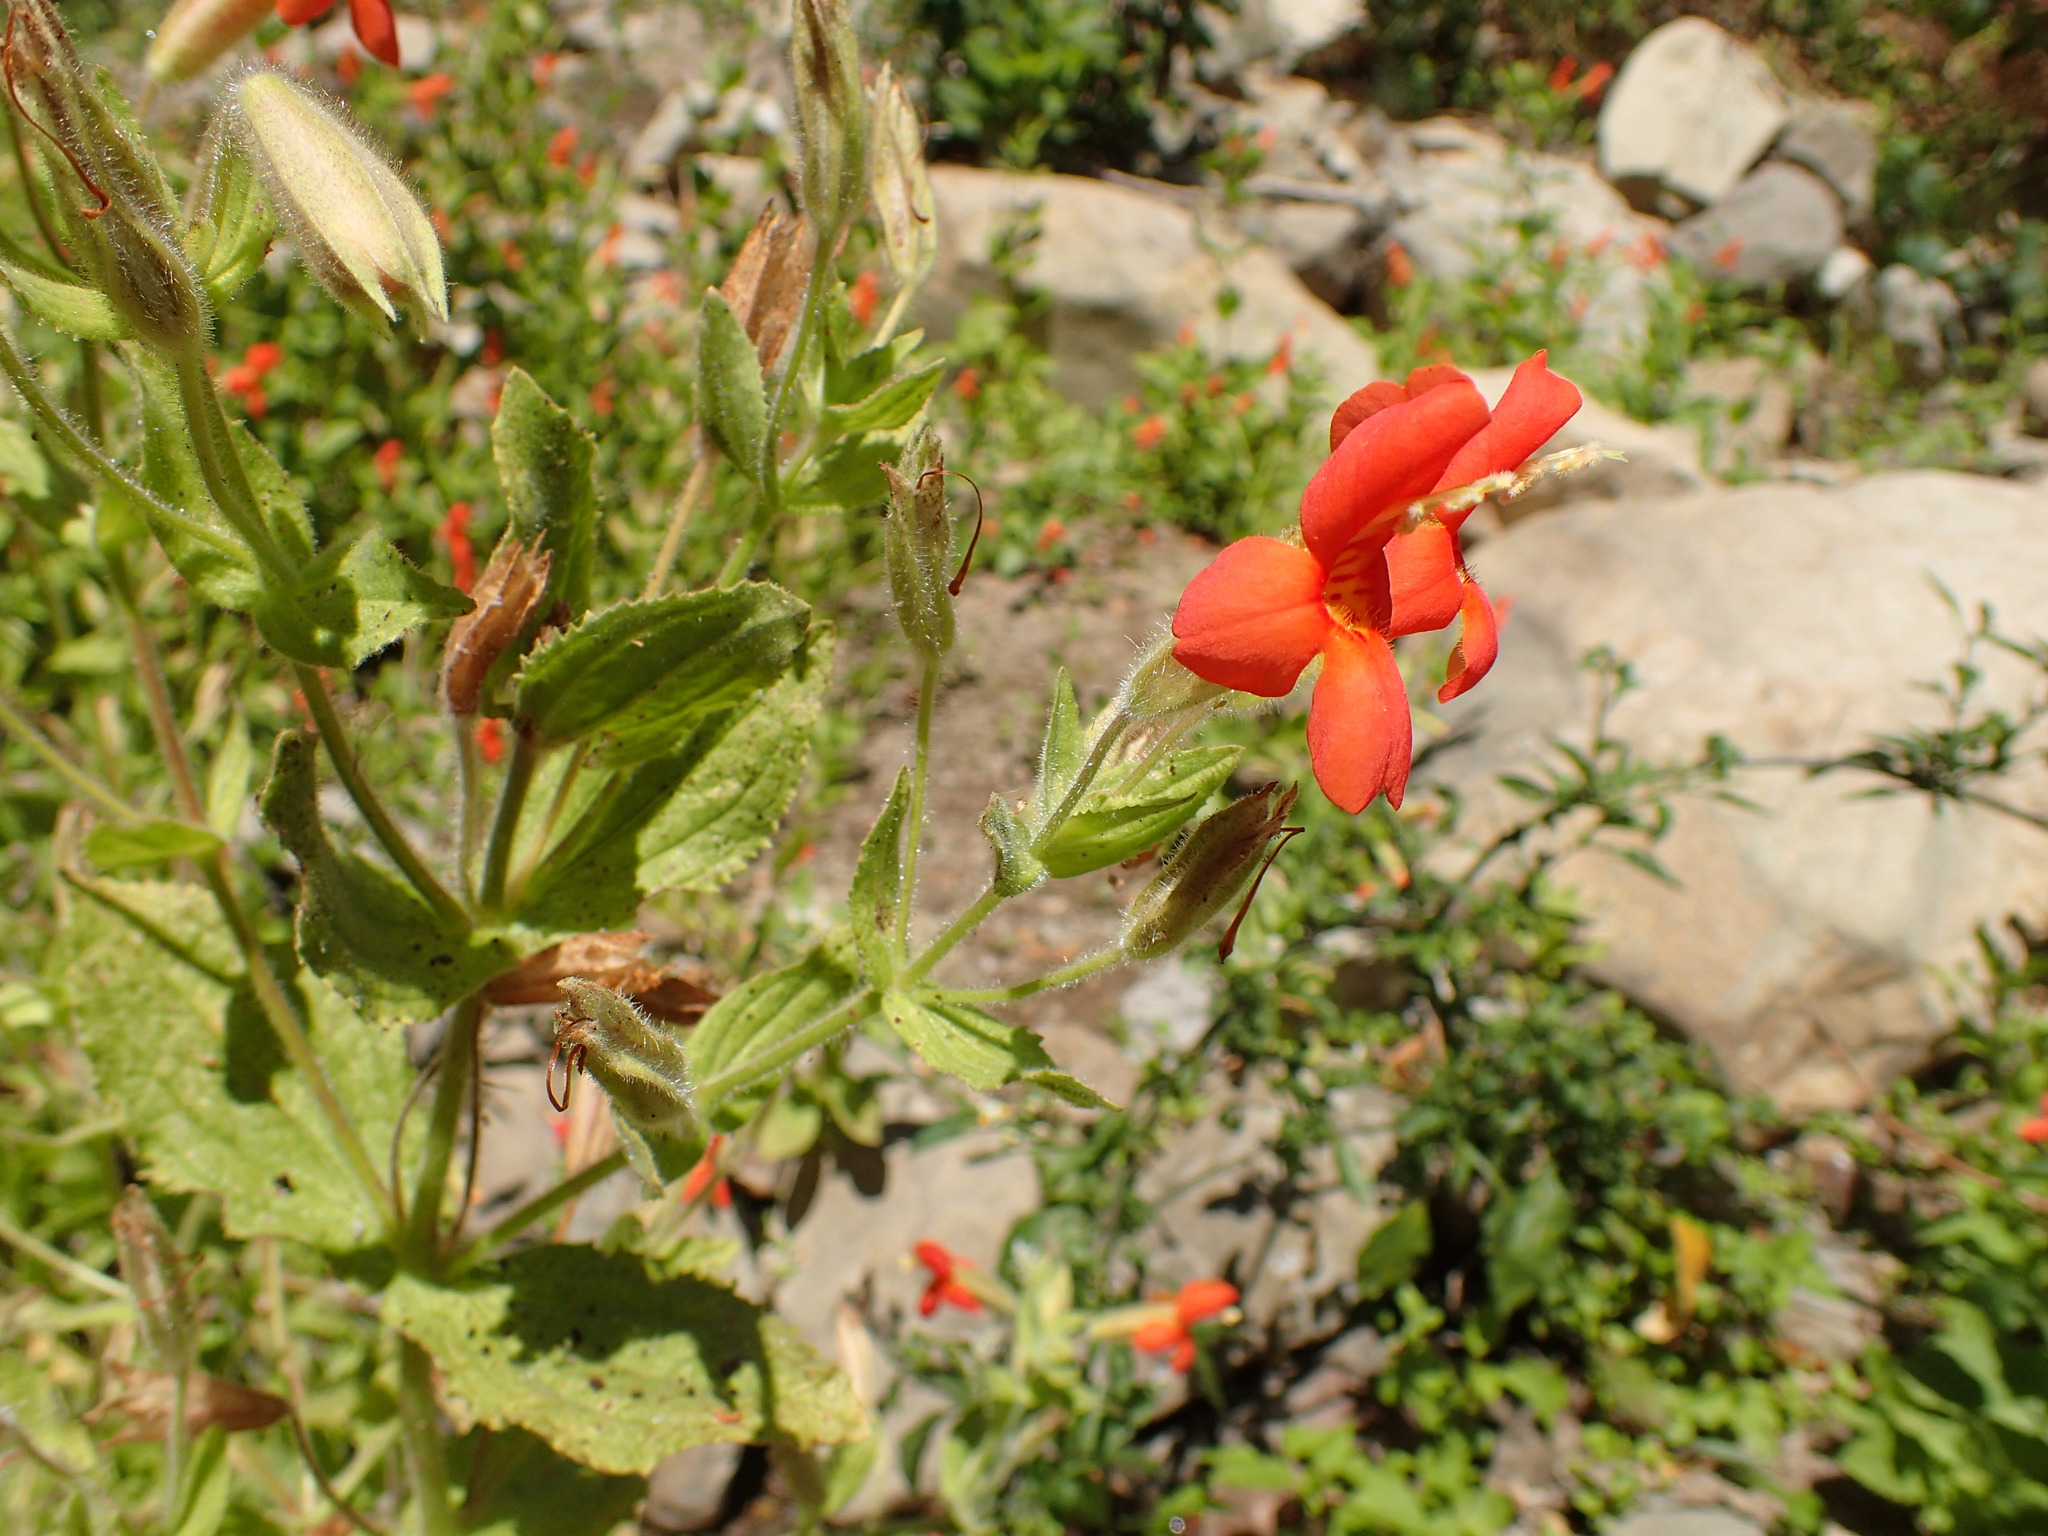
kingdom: Plantae
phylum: Tracheophyta
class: Magnoliopsida
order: Lamiales
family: Phrymaceae
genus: Erythranthe
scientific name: Erythranthe cardinalis
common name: Scarlet monkey-flower
